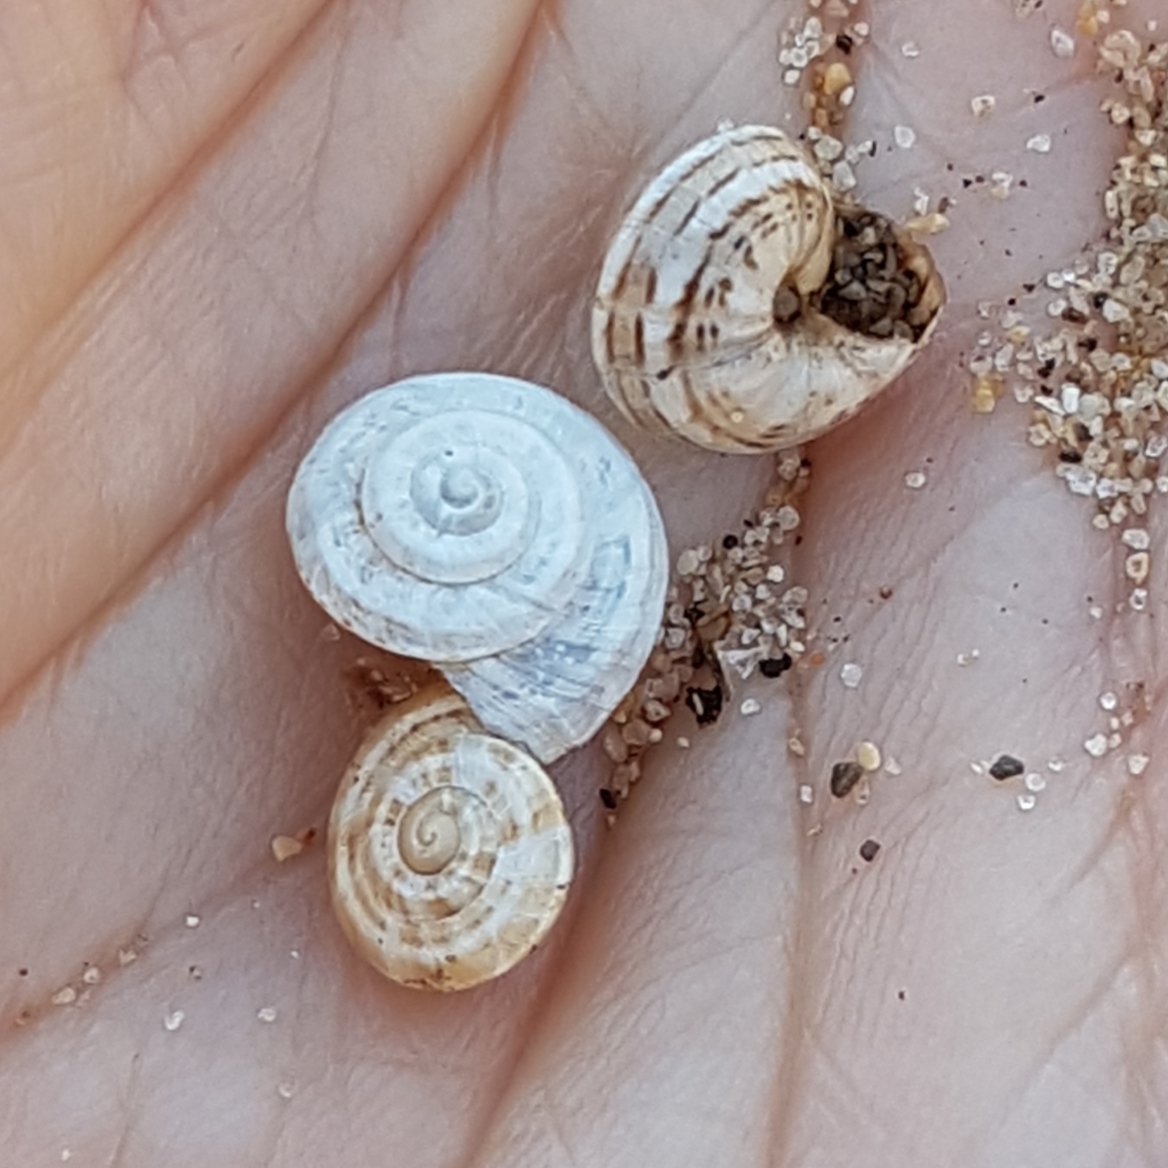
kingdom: Animalia
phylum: Mollusca
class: Gastropoda
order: Stylommatophora
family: Helicidae
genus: Theba
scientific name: Theba pisana
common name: White snail
